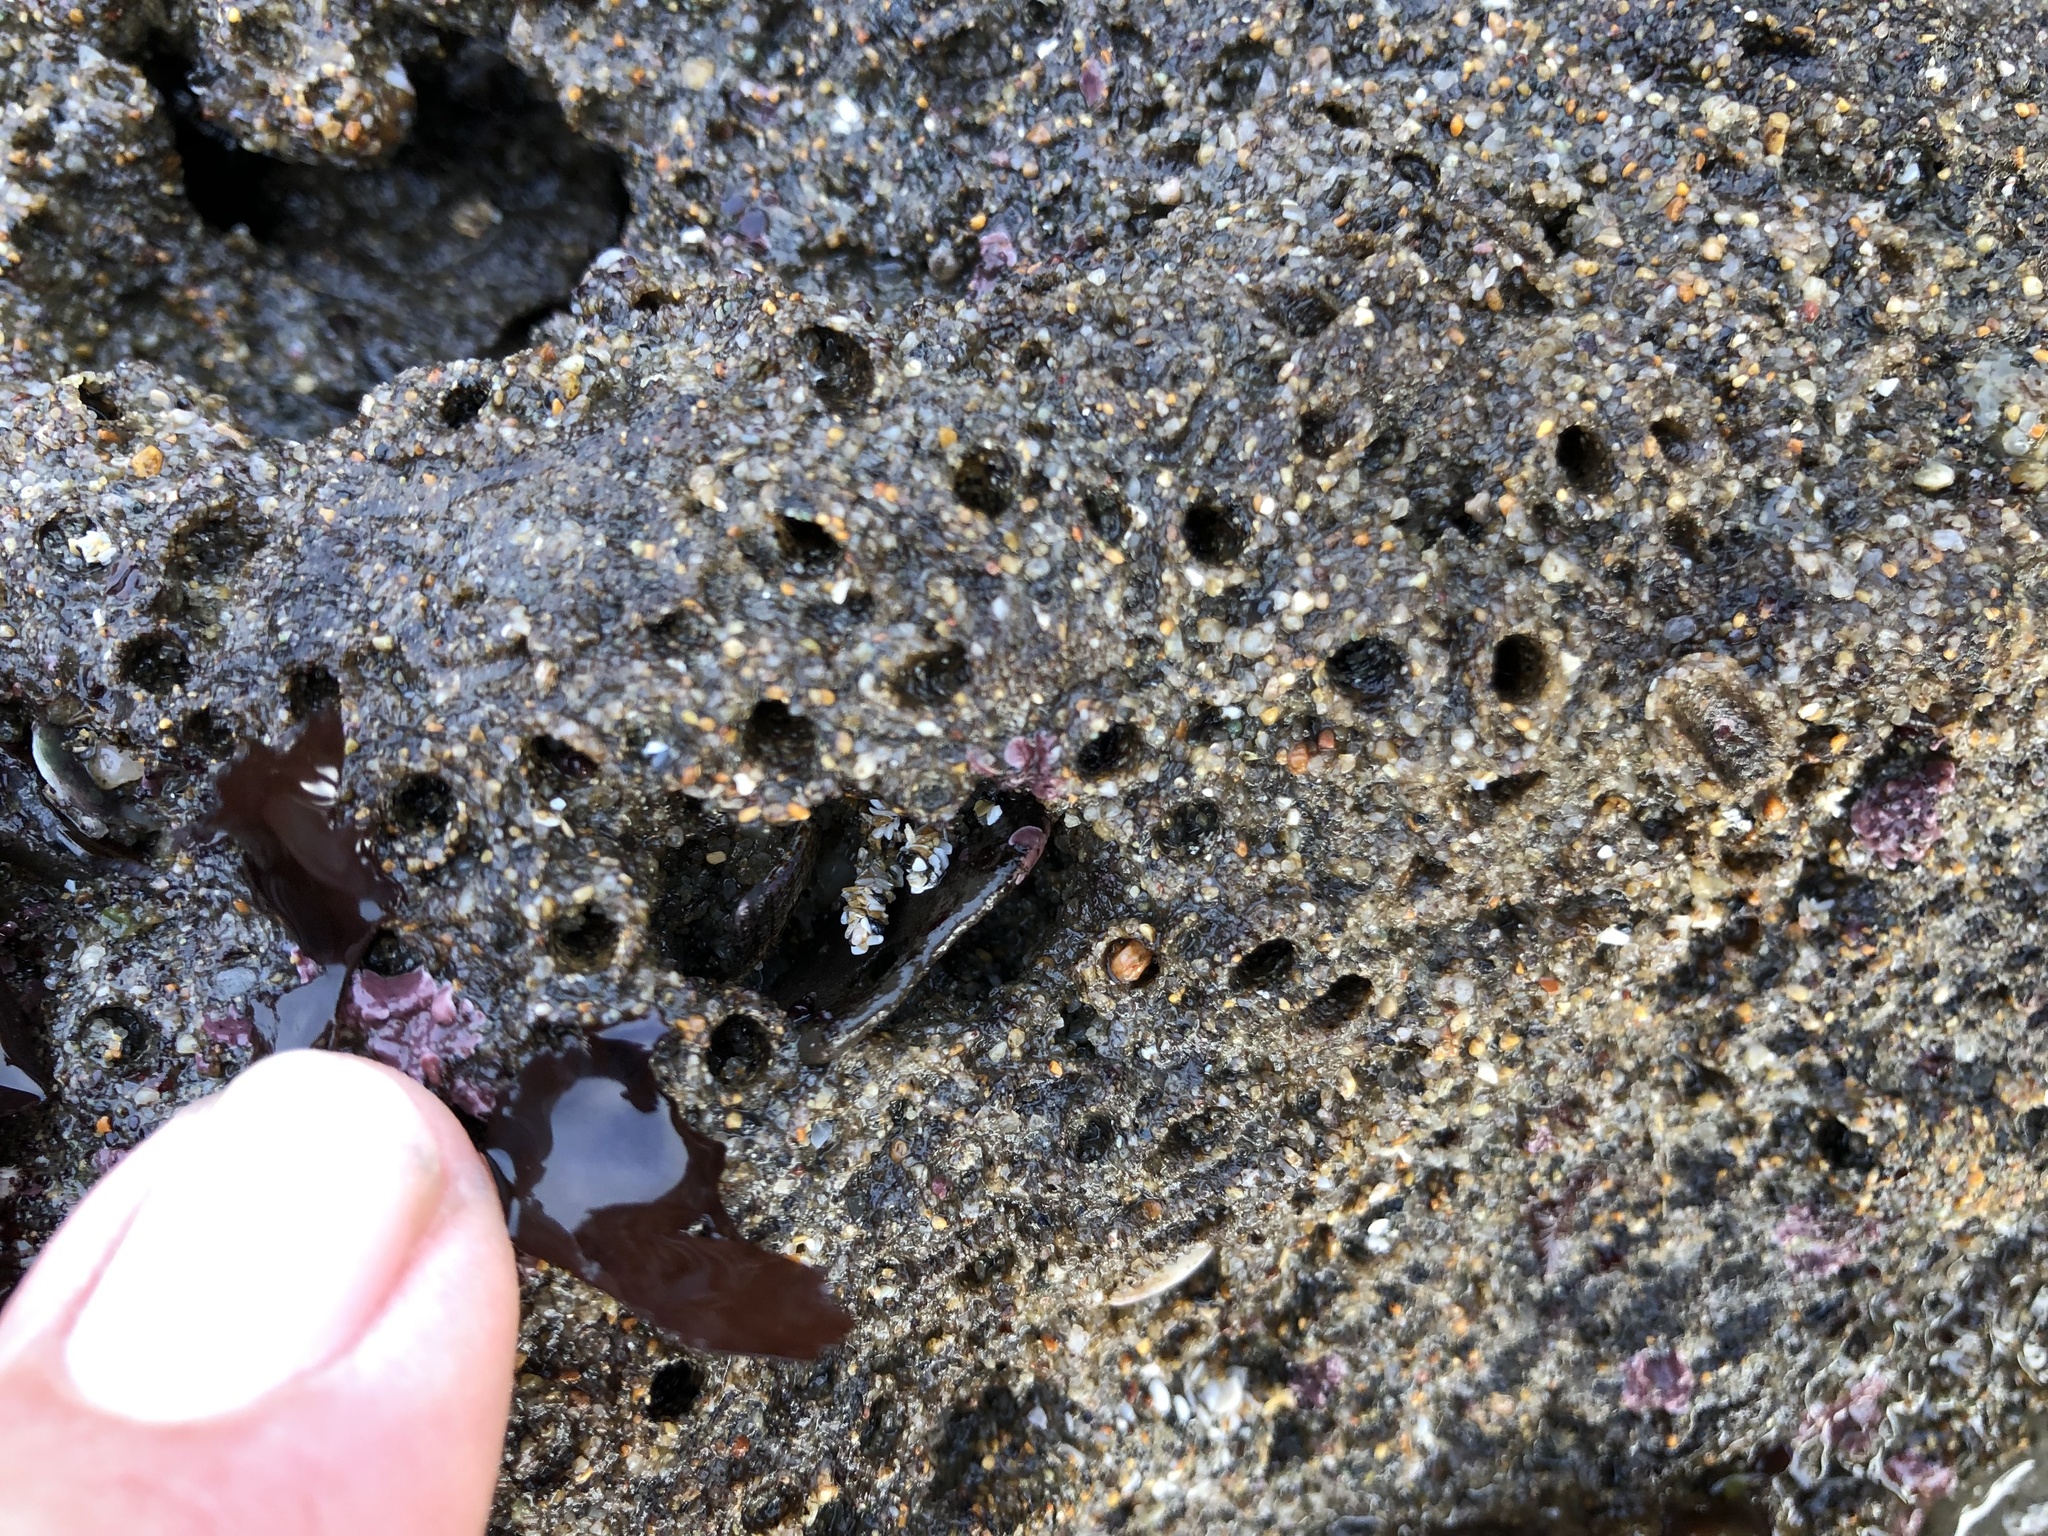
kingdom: Animalia
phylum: Annelida
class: Polychaeta
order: Sabellida
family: Sabellariidae
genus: Phragmatopoma
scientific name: Phragmatopoma californica
